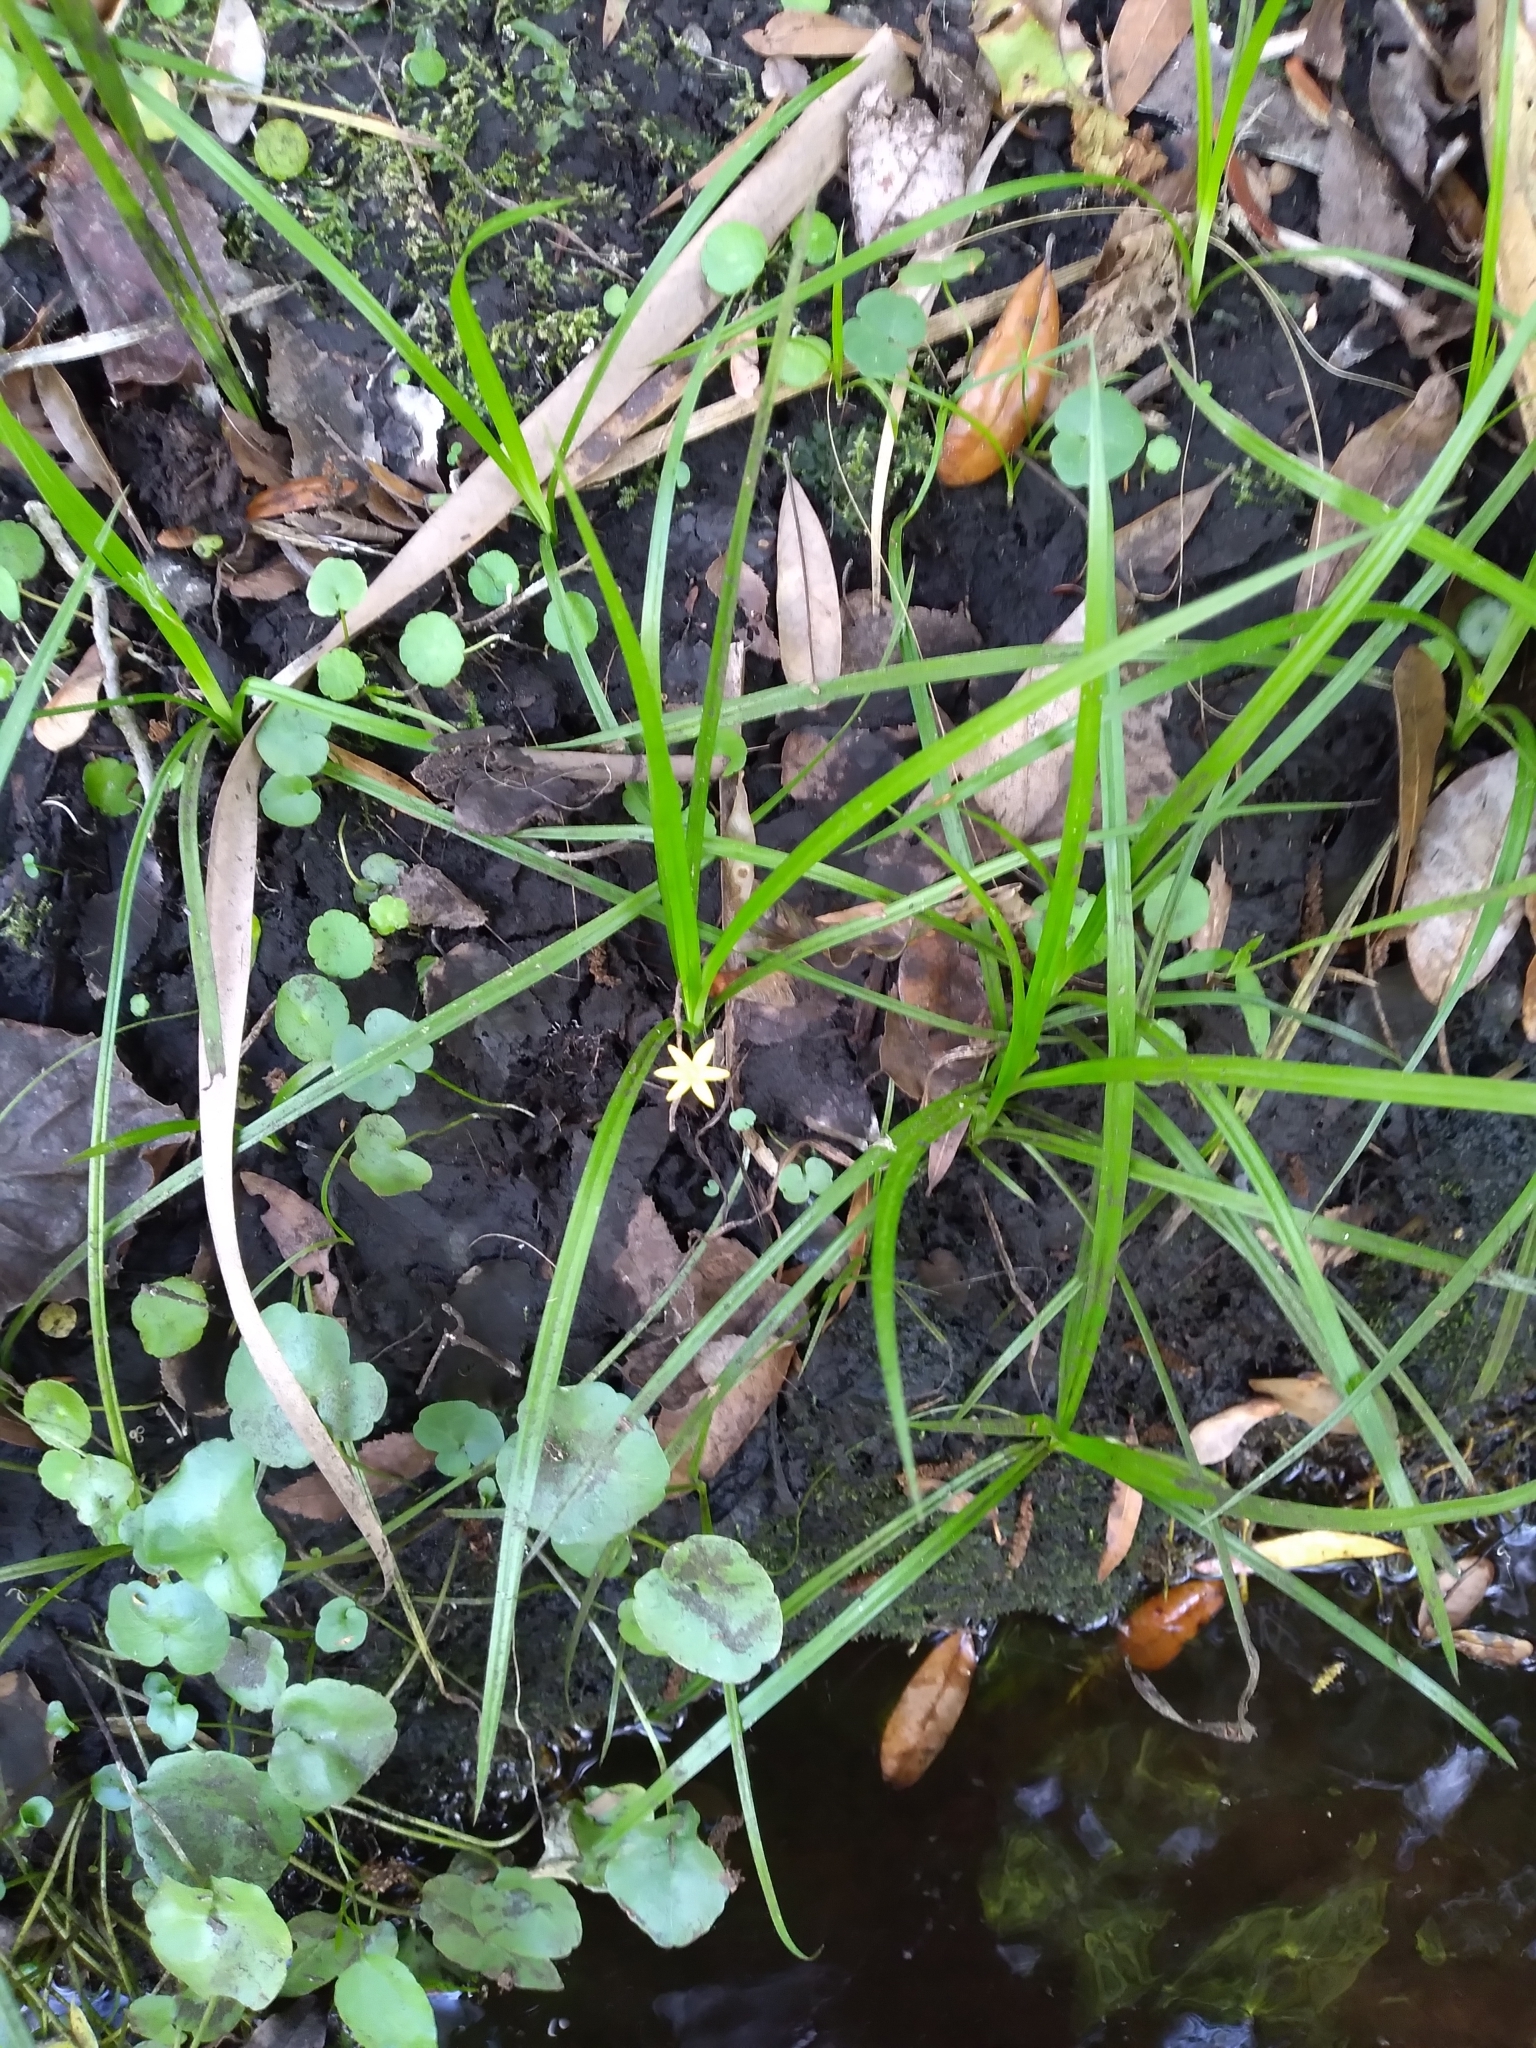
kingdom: Plantae
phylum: Tracheophyta
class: Liliopsida
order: Asparagales
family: Hypoxidaceae
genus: Hypoxis
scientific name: Hypoxis curtissii
